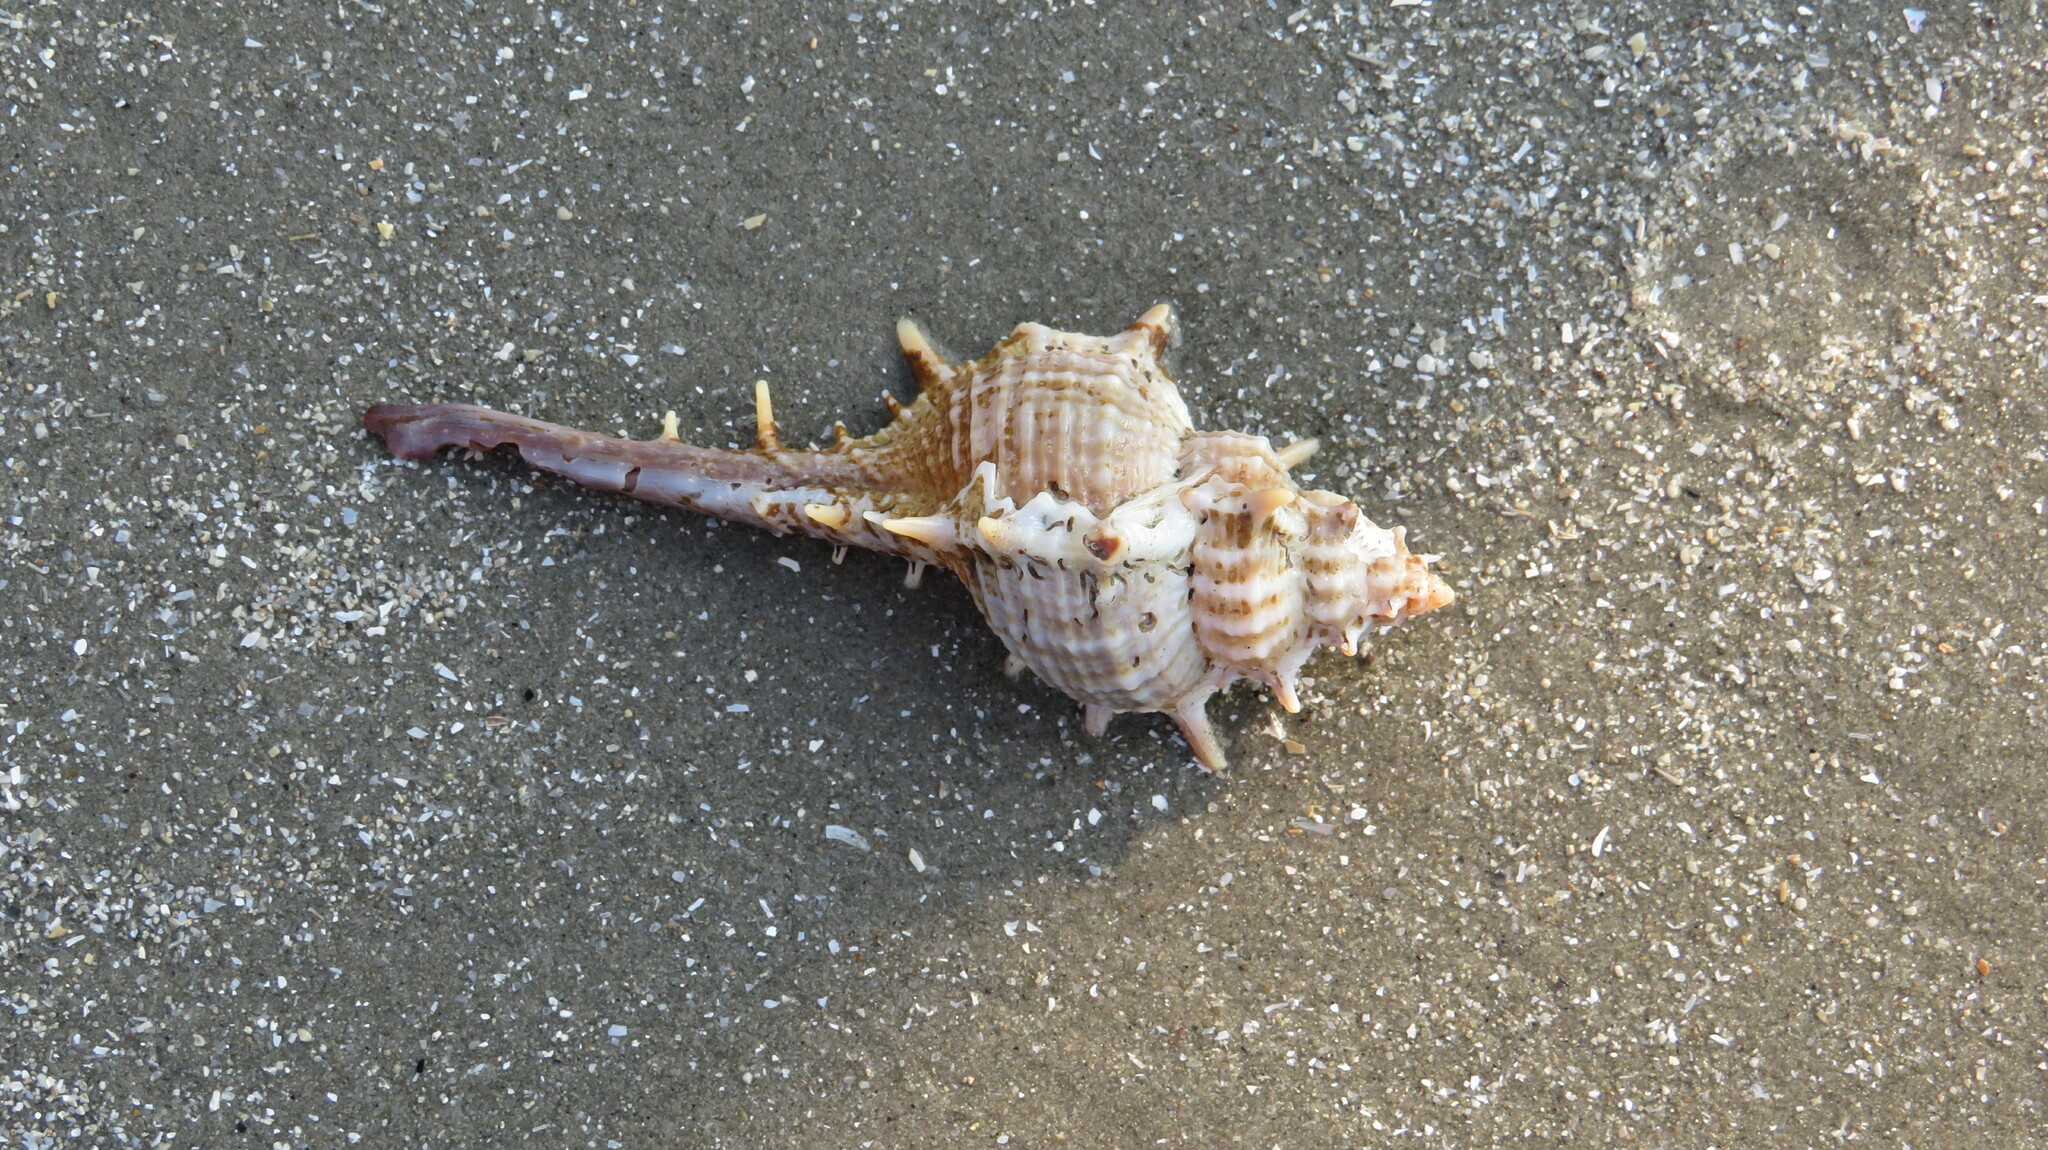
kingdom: Animalia
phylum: Mollusca
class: Gastropoda
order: Neogastropoda
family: Muricidae
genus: Murex
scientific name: Murex trapa
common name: Rare spined murex
